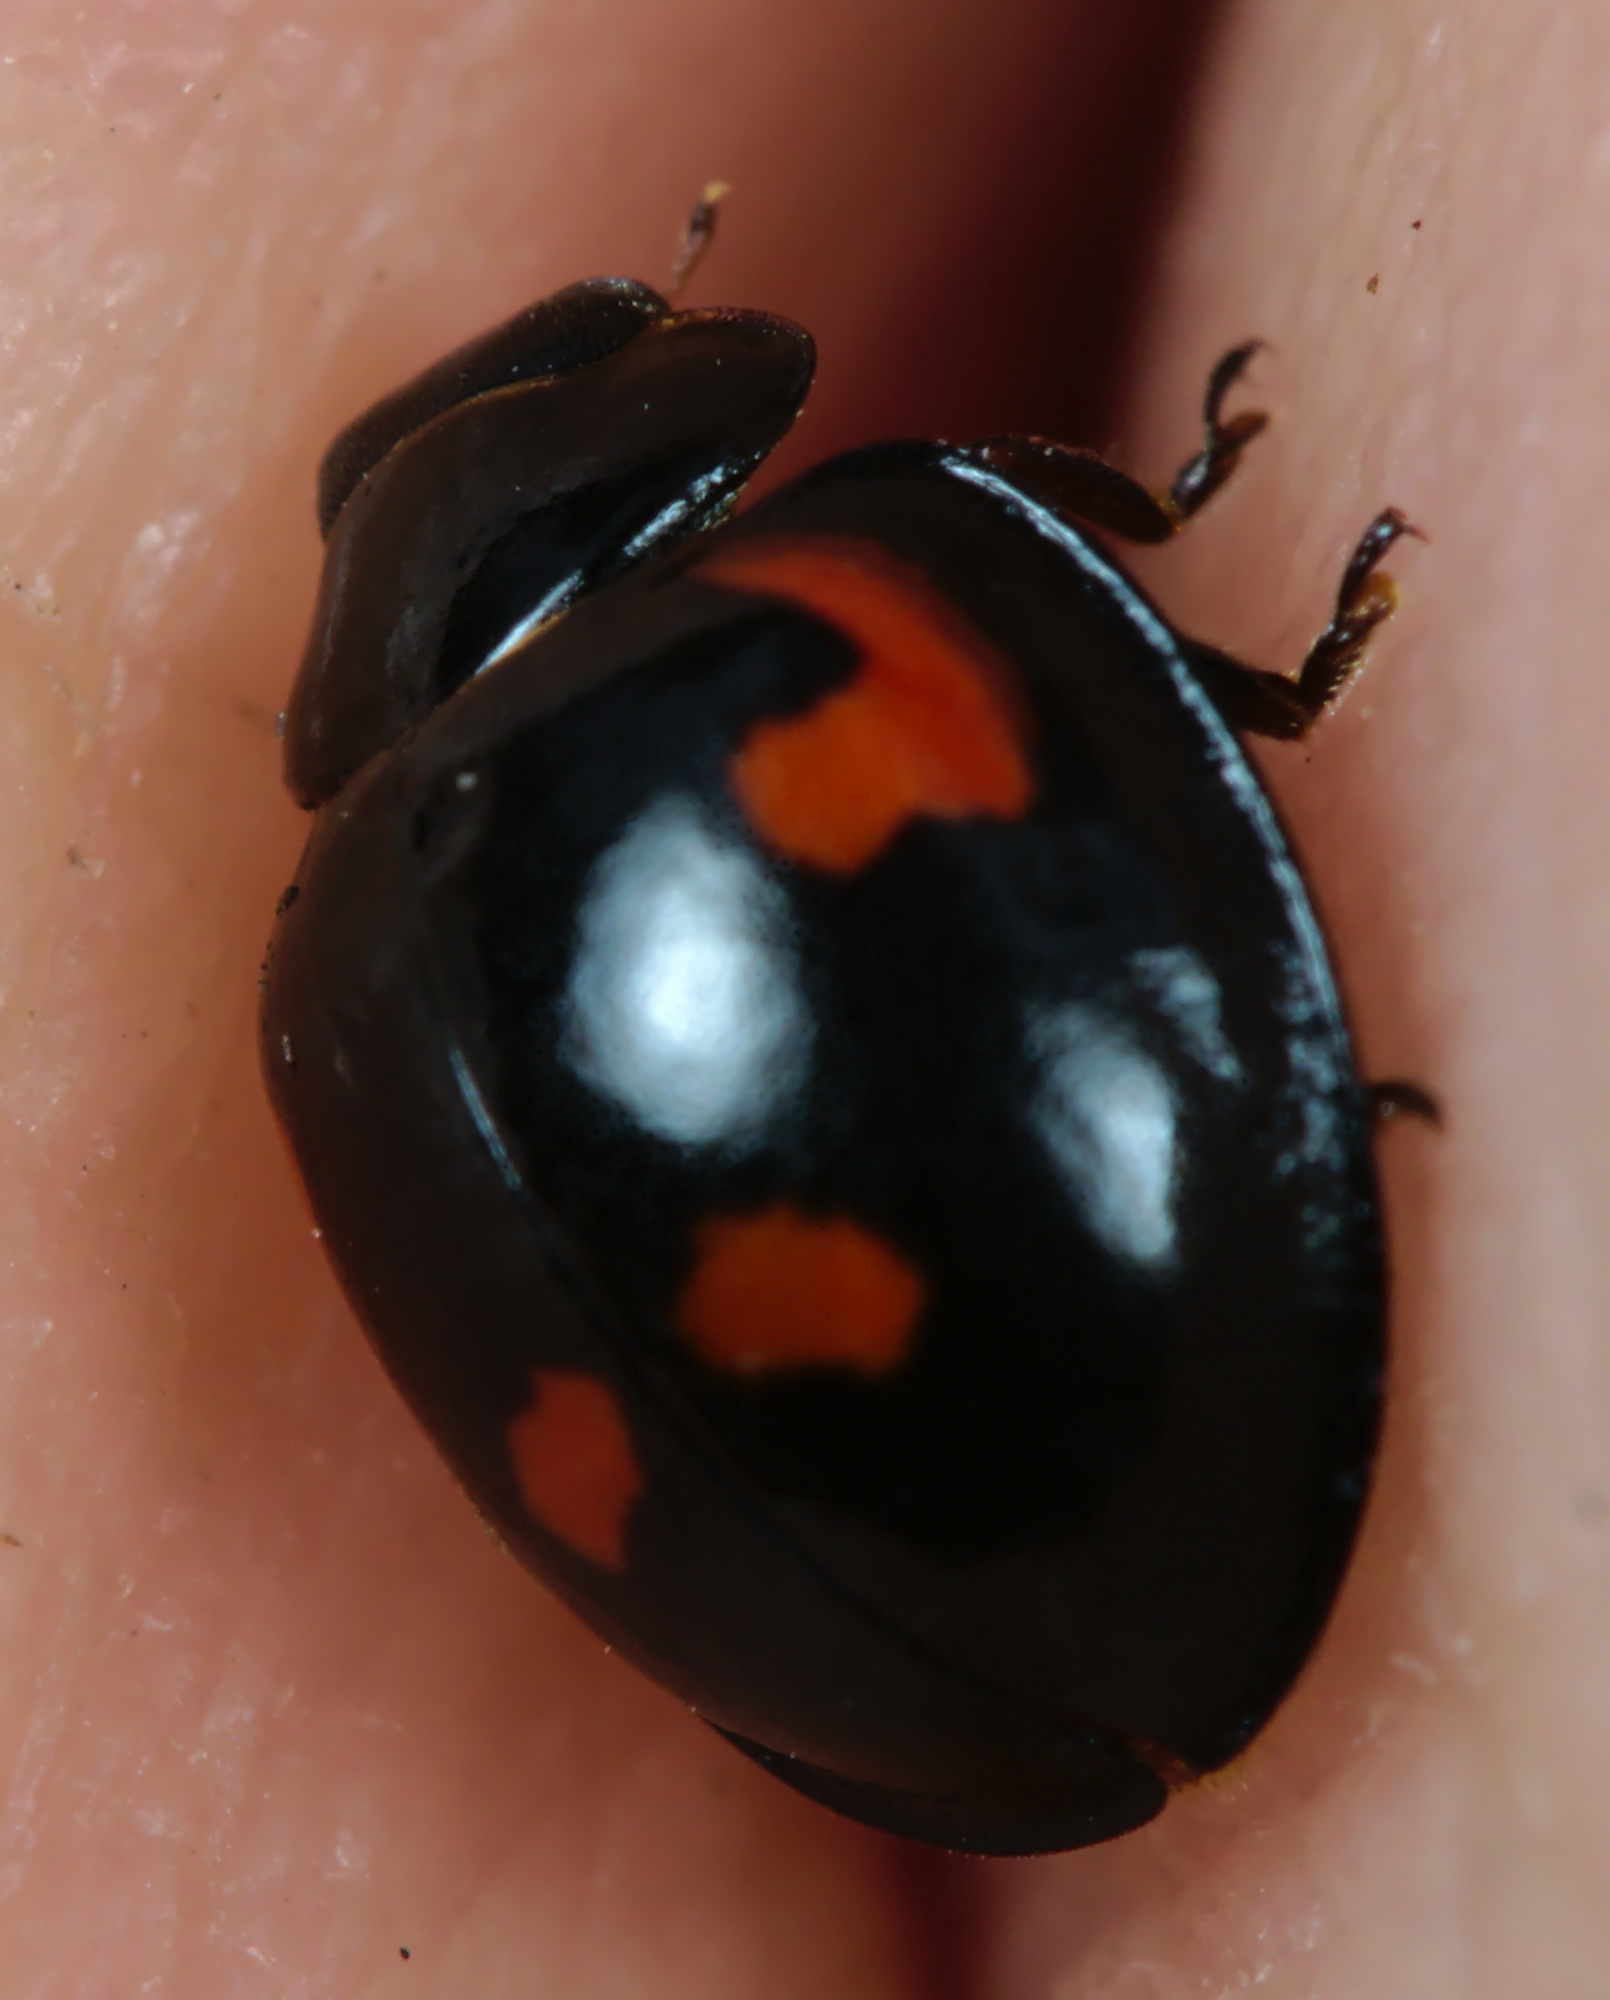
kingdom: Animalia
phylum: Arthropoda
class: Insecta
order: Coleoptera
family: Coccinellidae
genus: Brumus
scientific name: Brumus quadripustulatus
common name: Ladybird beetle
